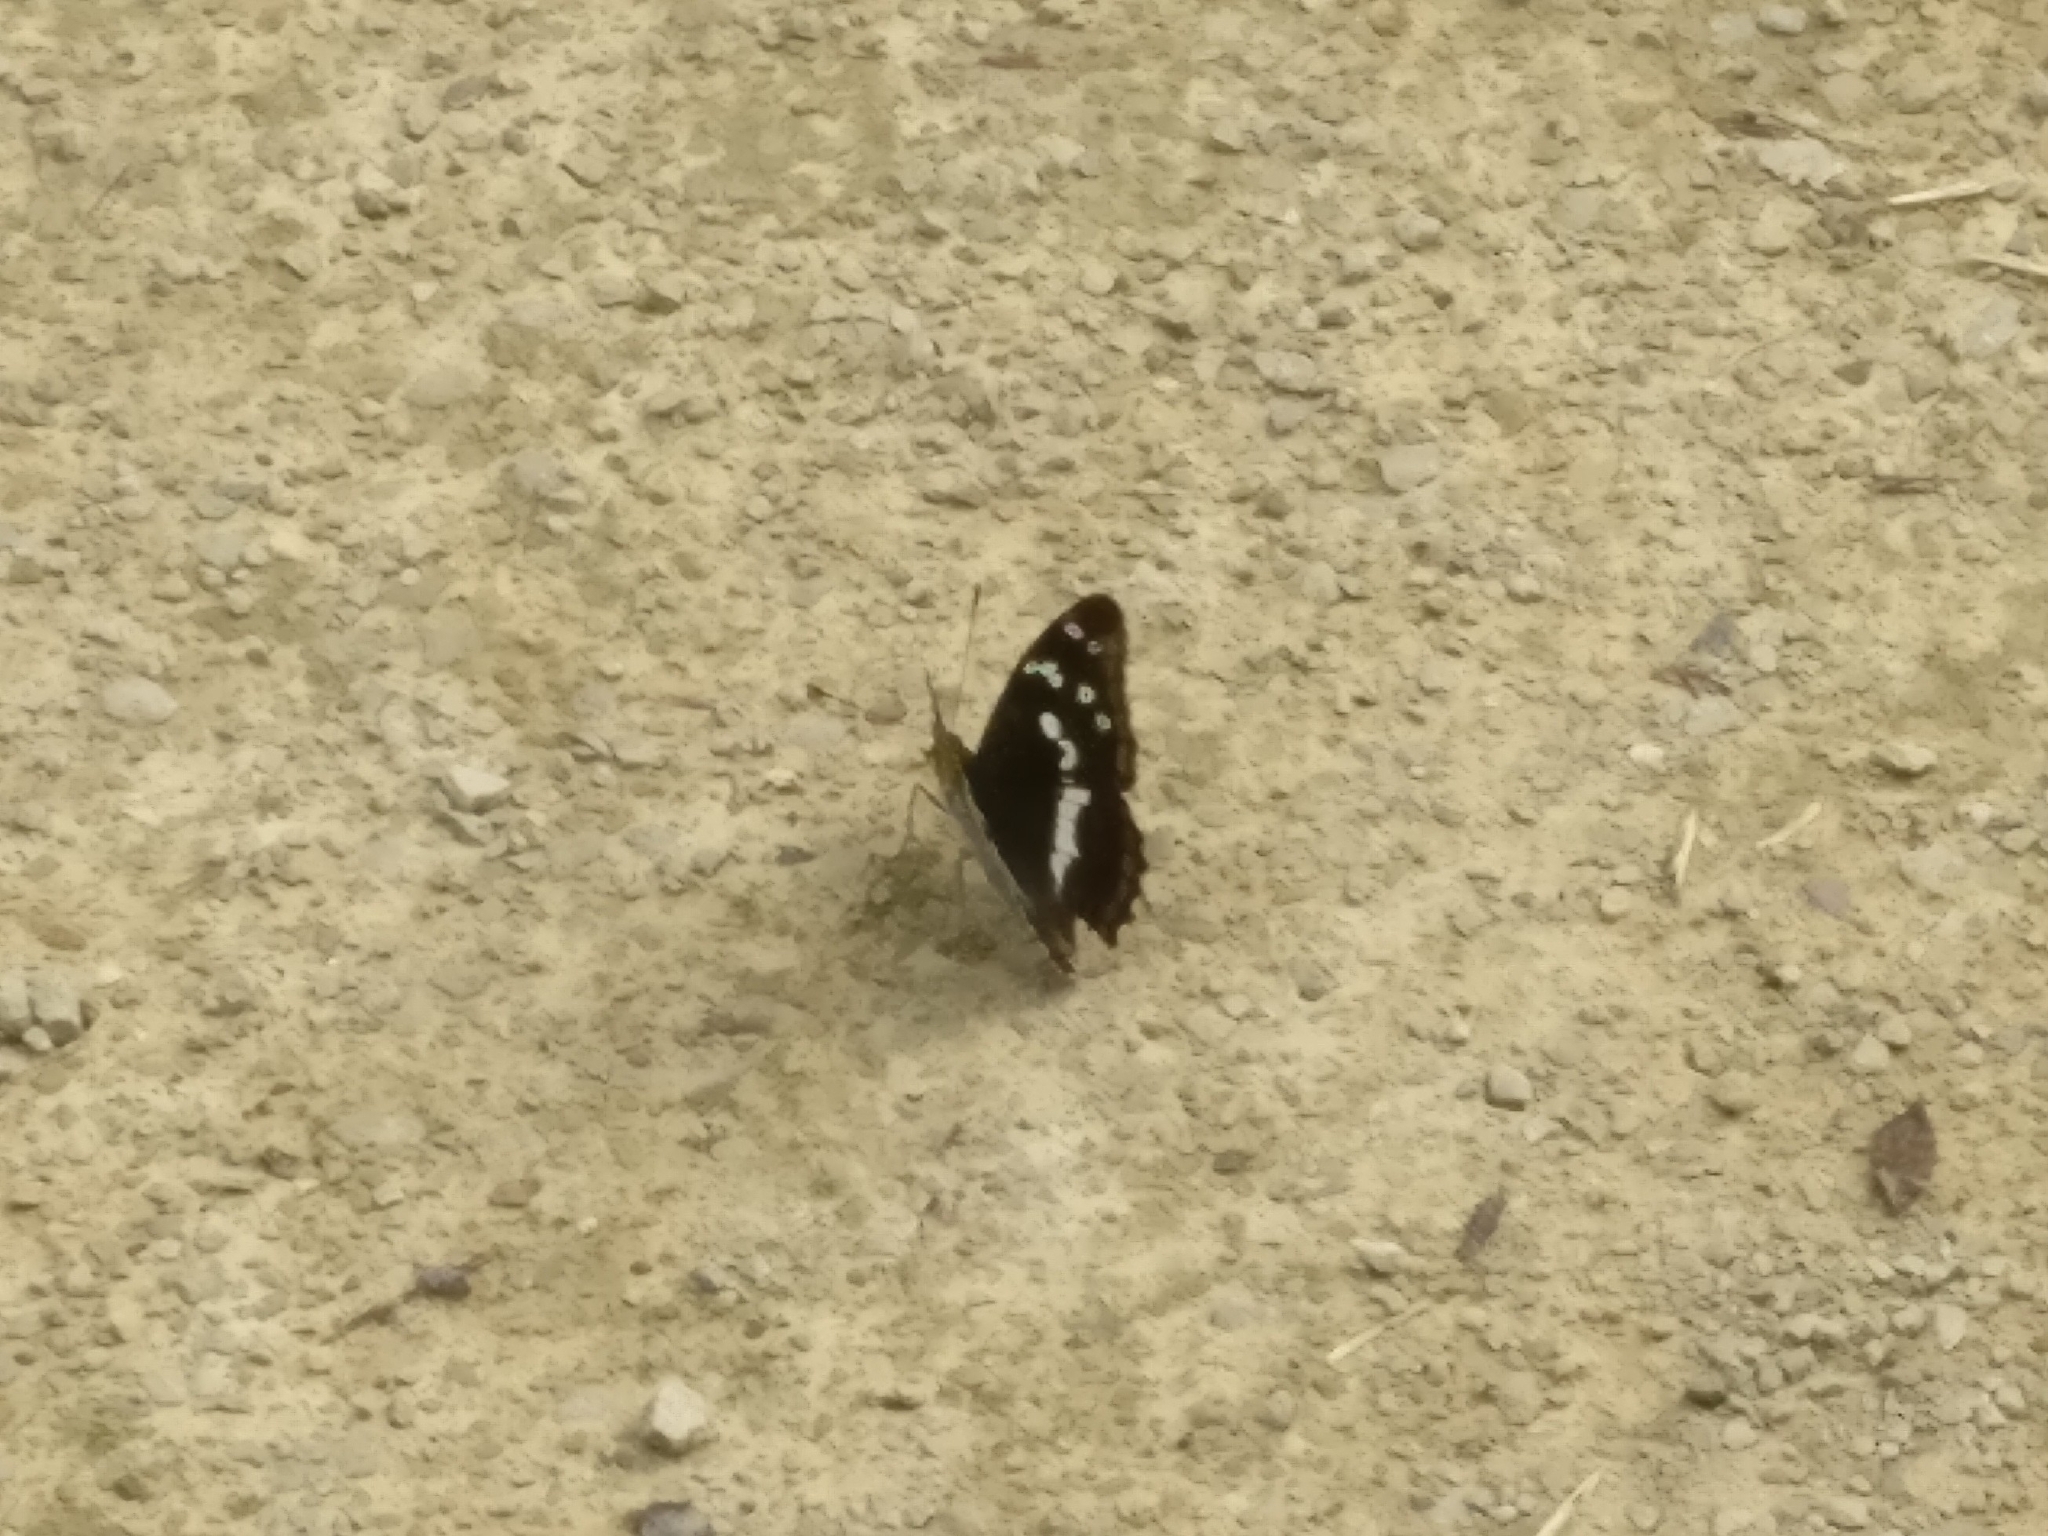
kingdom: Animalia
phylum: Arthropoda
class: Insecta
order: Lepidoptera
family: Nymphalidae
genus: Apatura
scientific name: Apatura iris
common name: Purple emperor
